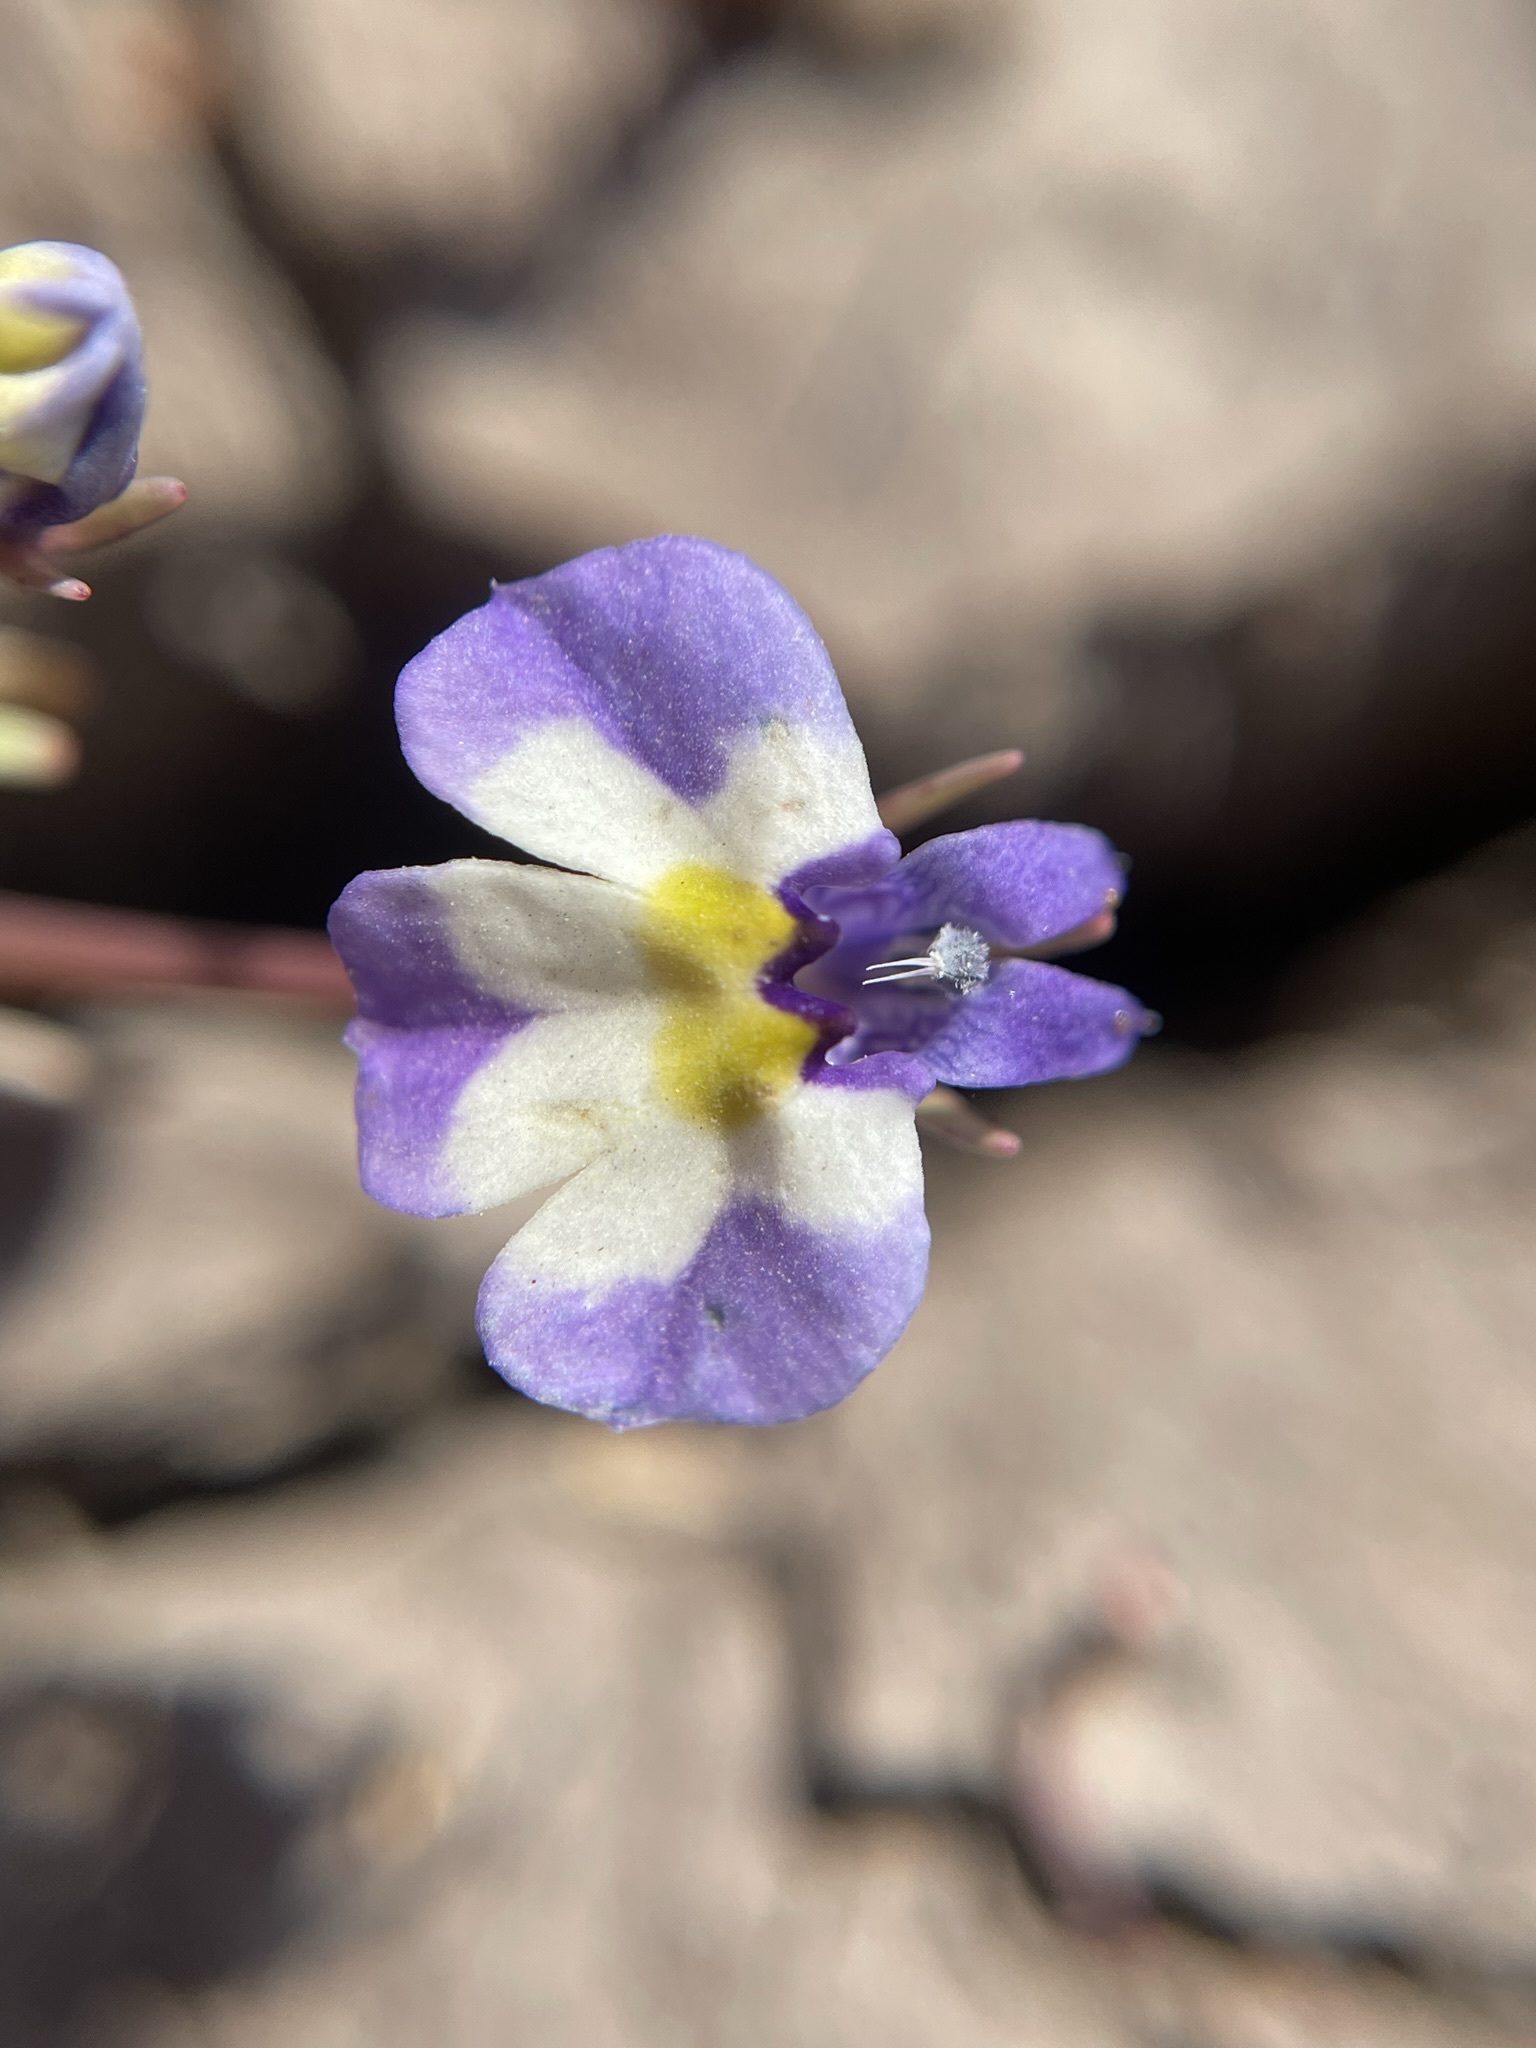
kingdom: Plantae
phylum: Tracheophyta
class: Magnoliopsida
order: Asterales
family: Campanulaceae
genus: Downingia
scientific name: Downingia bicornuta
